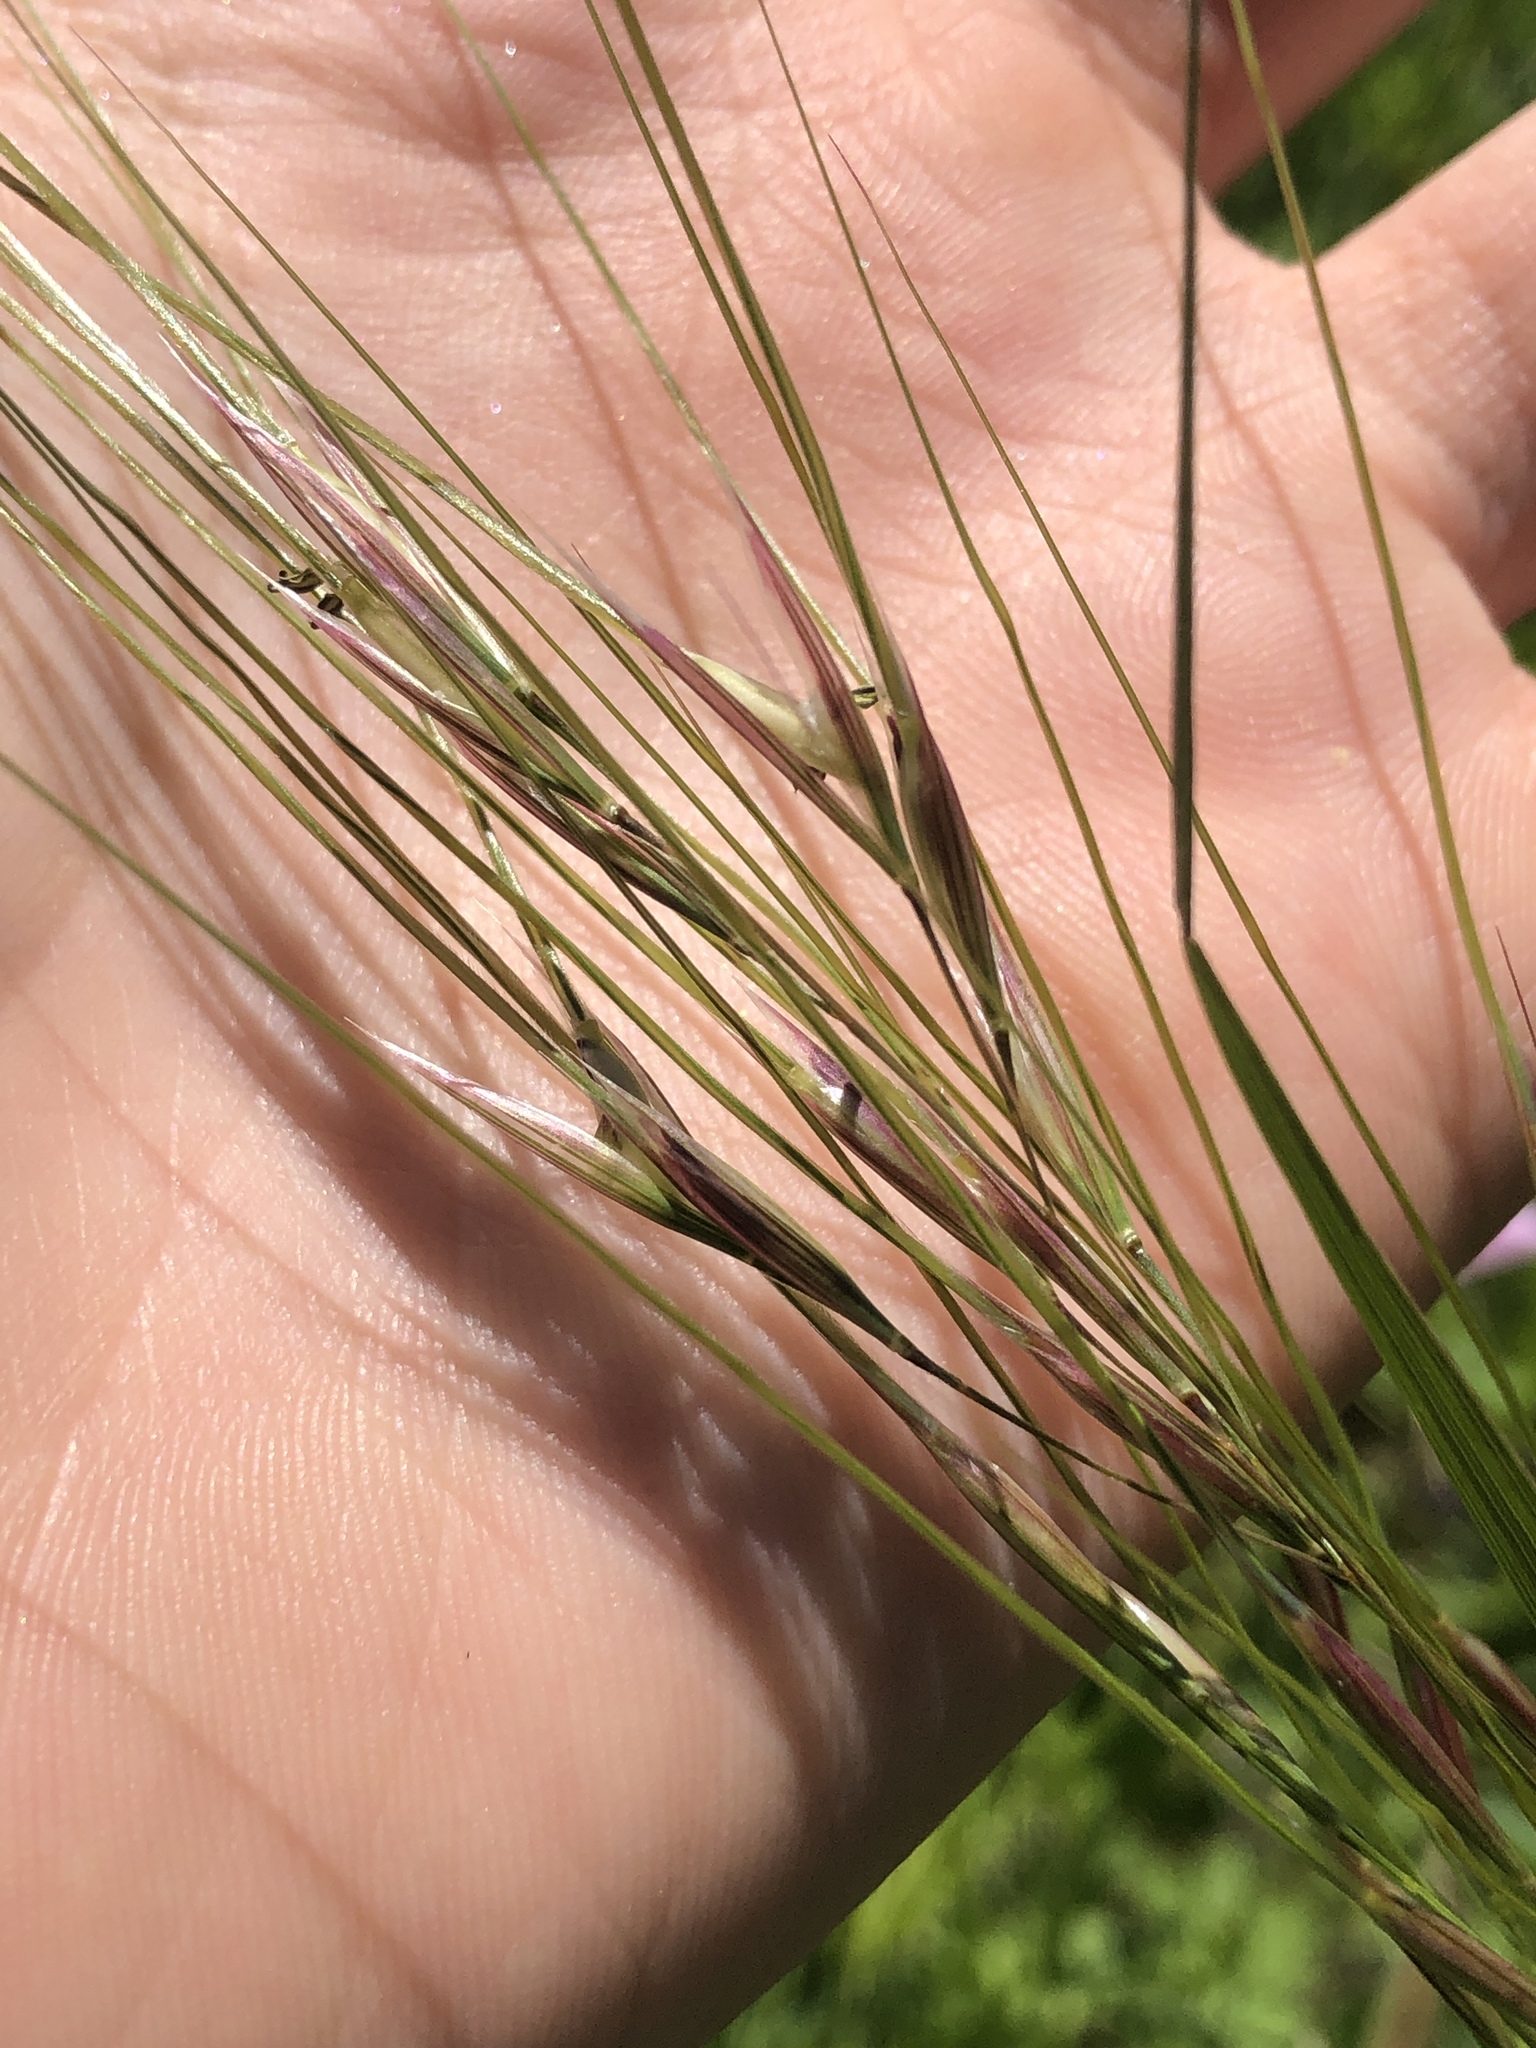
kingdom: Plantae
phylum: Tracheophyta
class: Liliopsida
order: Poales
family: Poaceae
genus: Nassella
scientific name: Nassella leucotricha
